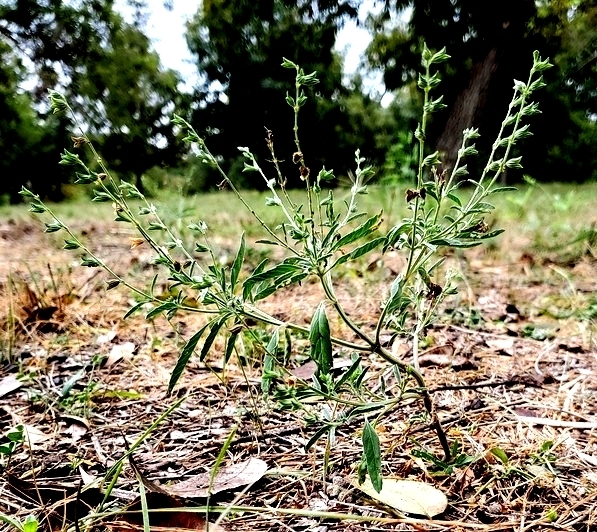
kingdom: Plantae
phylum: Tracheophyta
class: Magnoliopsida
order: Lamiales
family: Lamiaceae
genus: Salvia
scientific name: Salvia reflexa
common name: Mintweed
